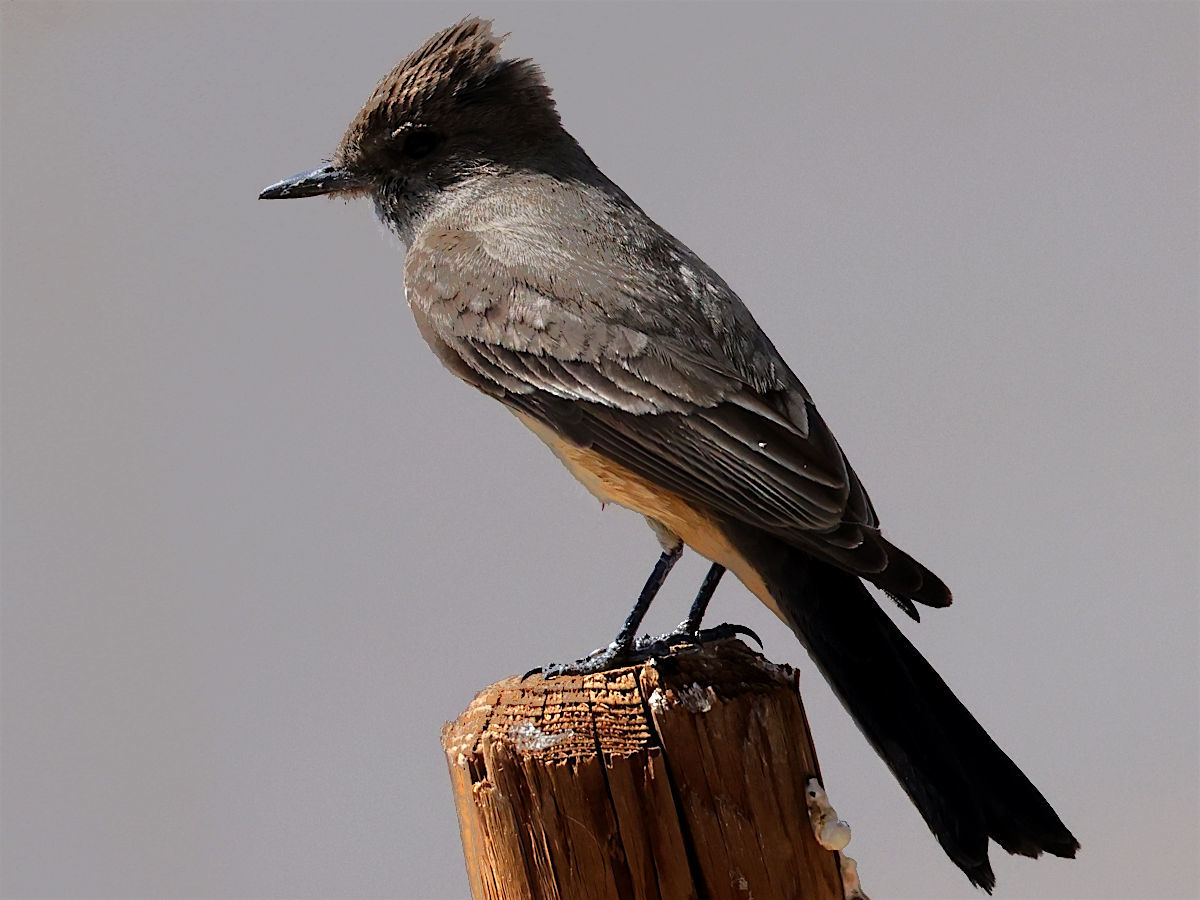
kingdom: Animalia
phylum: Chordata
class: Aves
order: Passeriformes
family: Tyrannidae
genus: Sayornis
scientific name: Sayornis saya
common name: Say's phoebe
